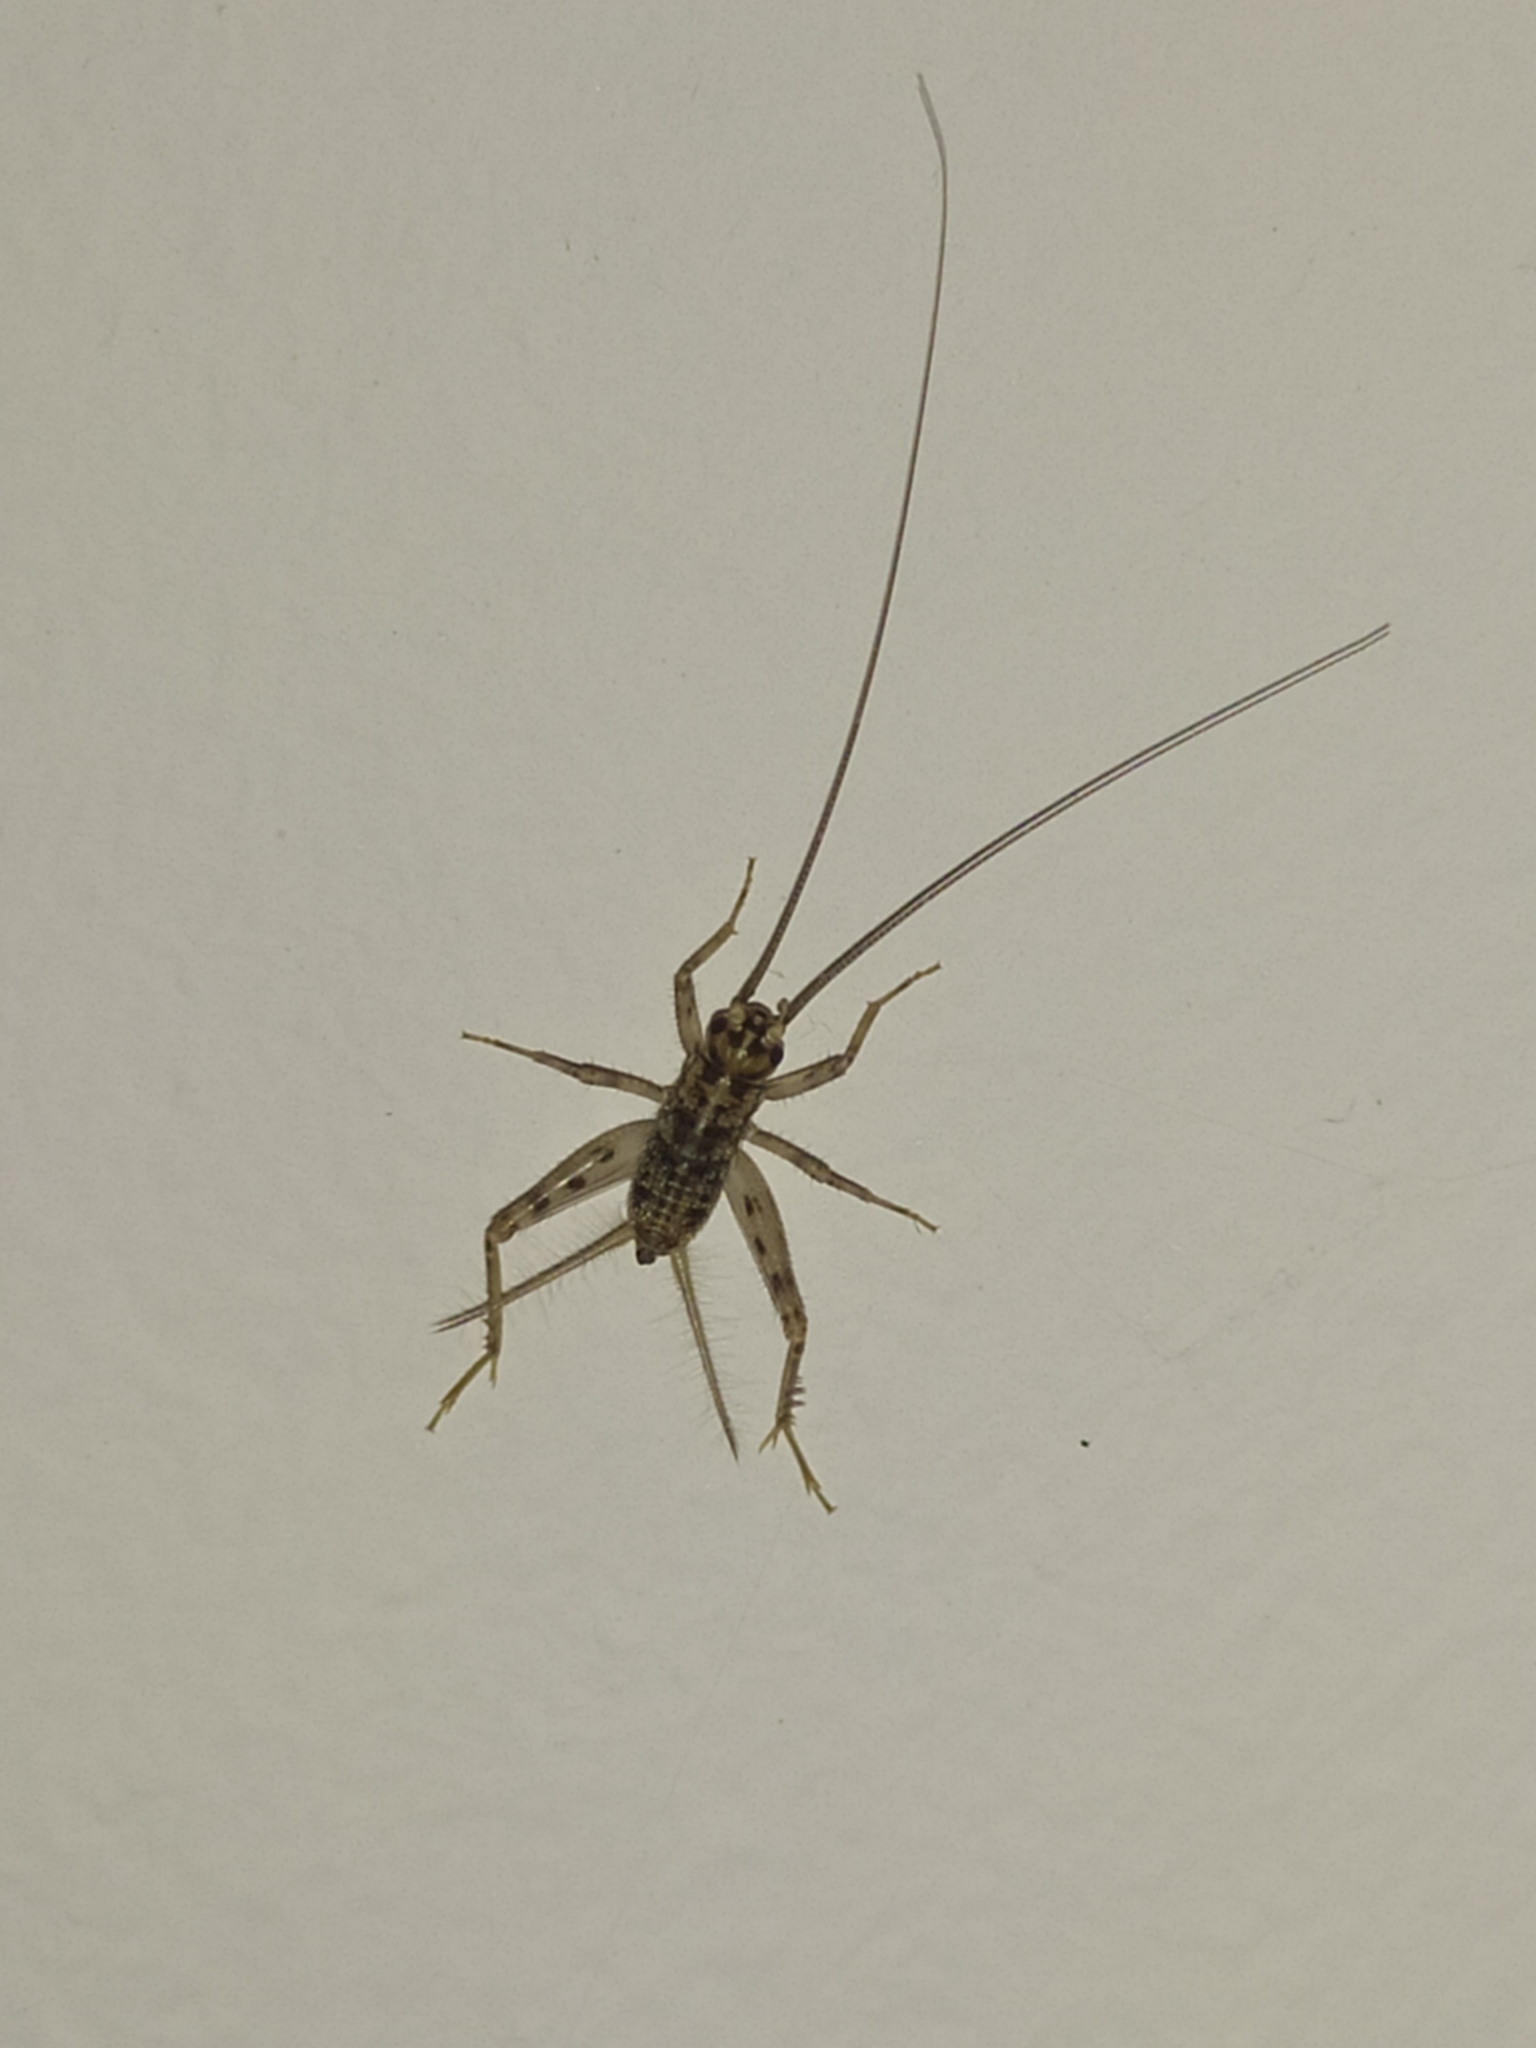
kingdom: Animalia
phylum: Arthropoda
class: Insecta
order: Orthoptera
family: Gryllidae
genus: Gryllomorpha
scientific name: Gryllomorpha dalmatina
